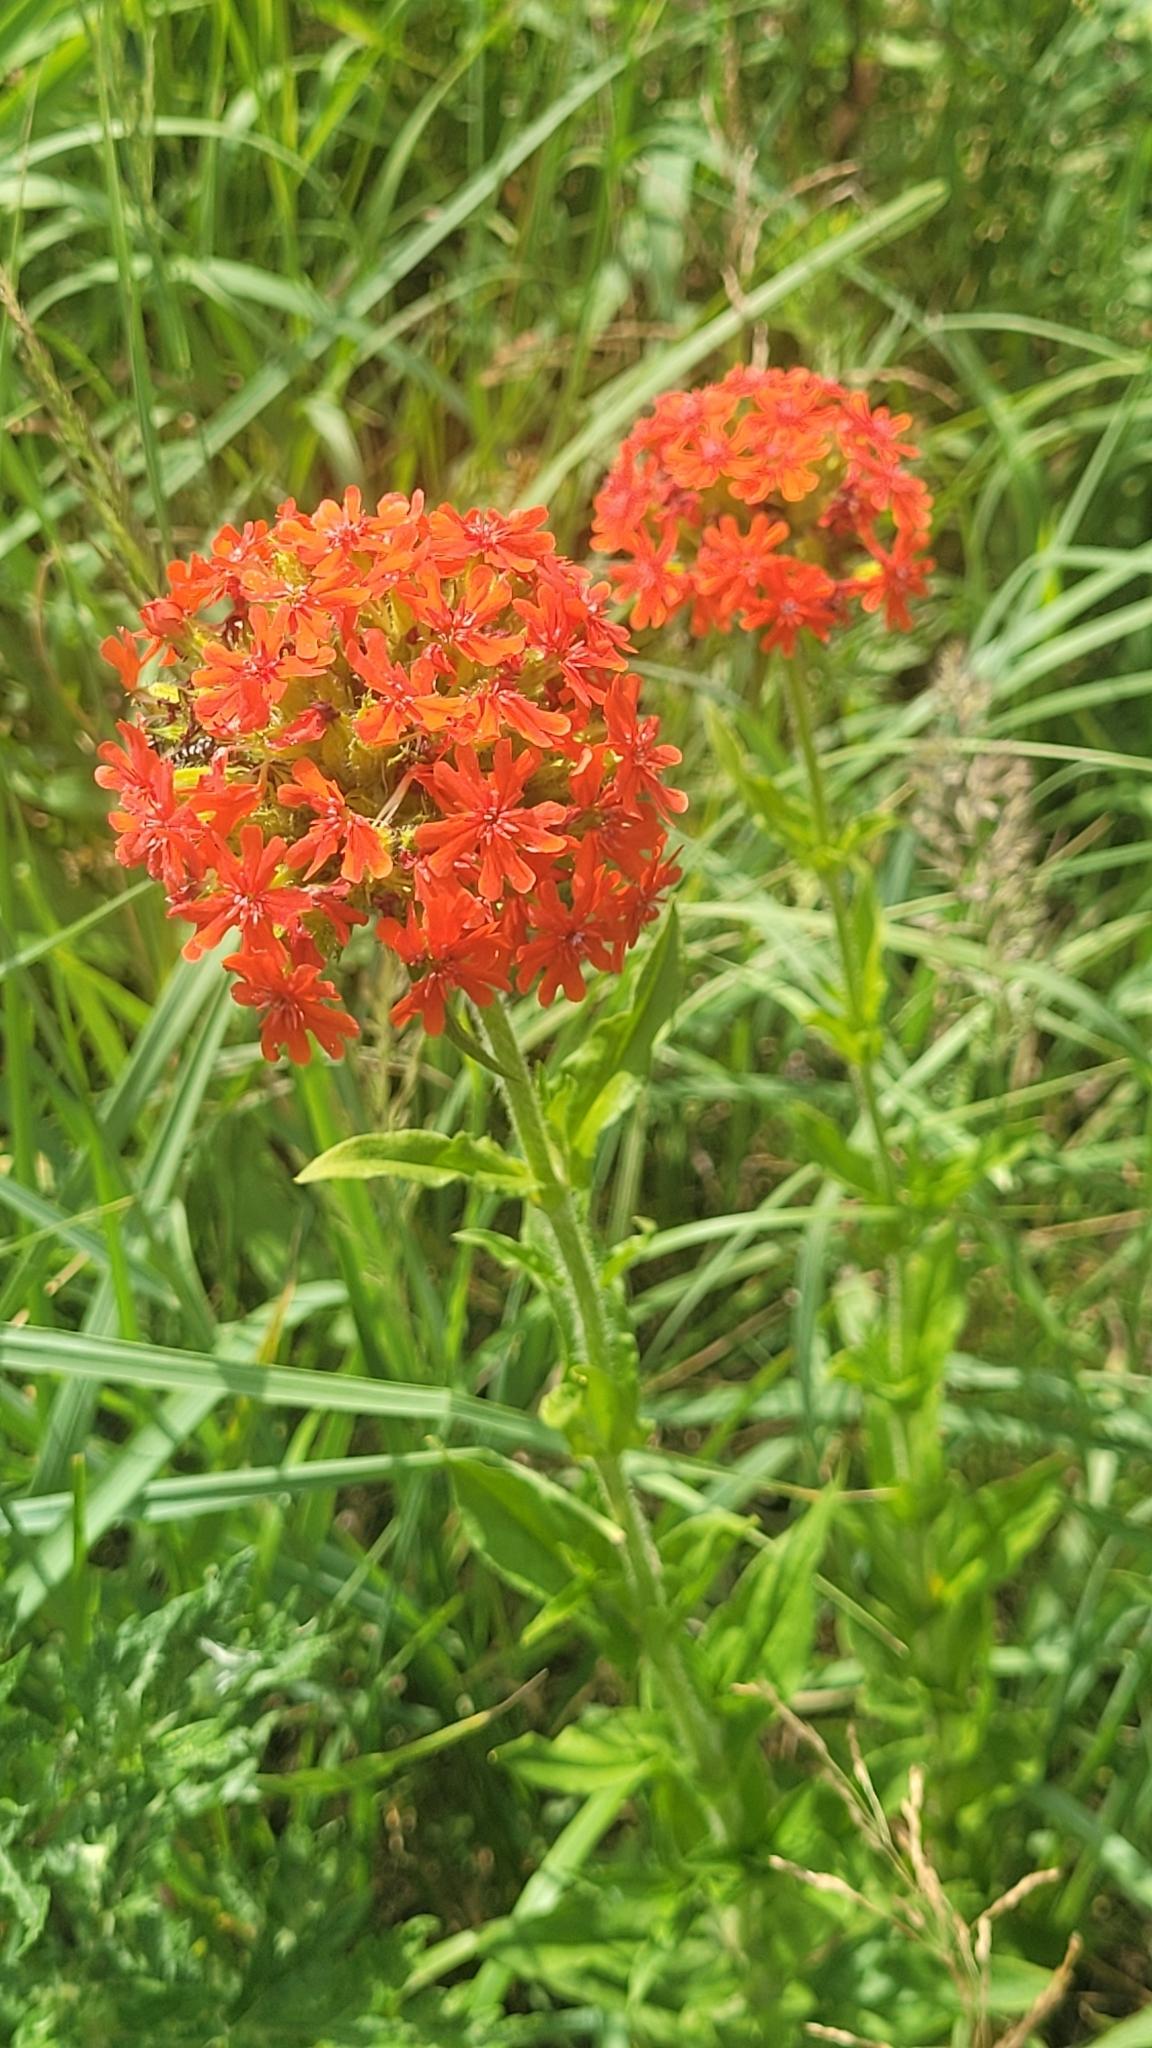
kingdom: Plantae
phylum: Tracheophyta
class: Magnoliopsida
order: Caryophyllales
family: Caryophyllaceae
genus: Silene
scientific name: Silene chalcedonica
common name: Maltese-cross
